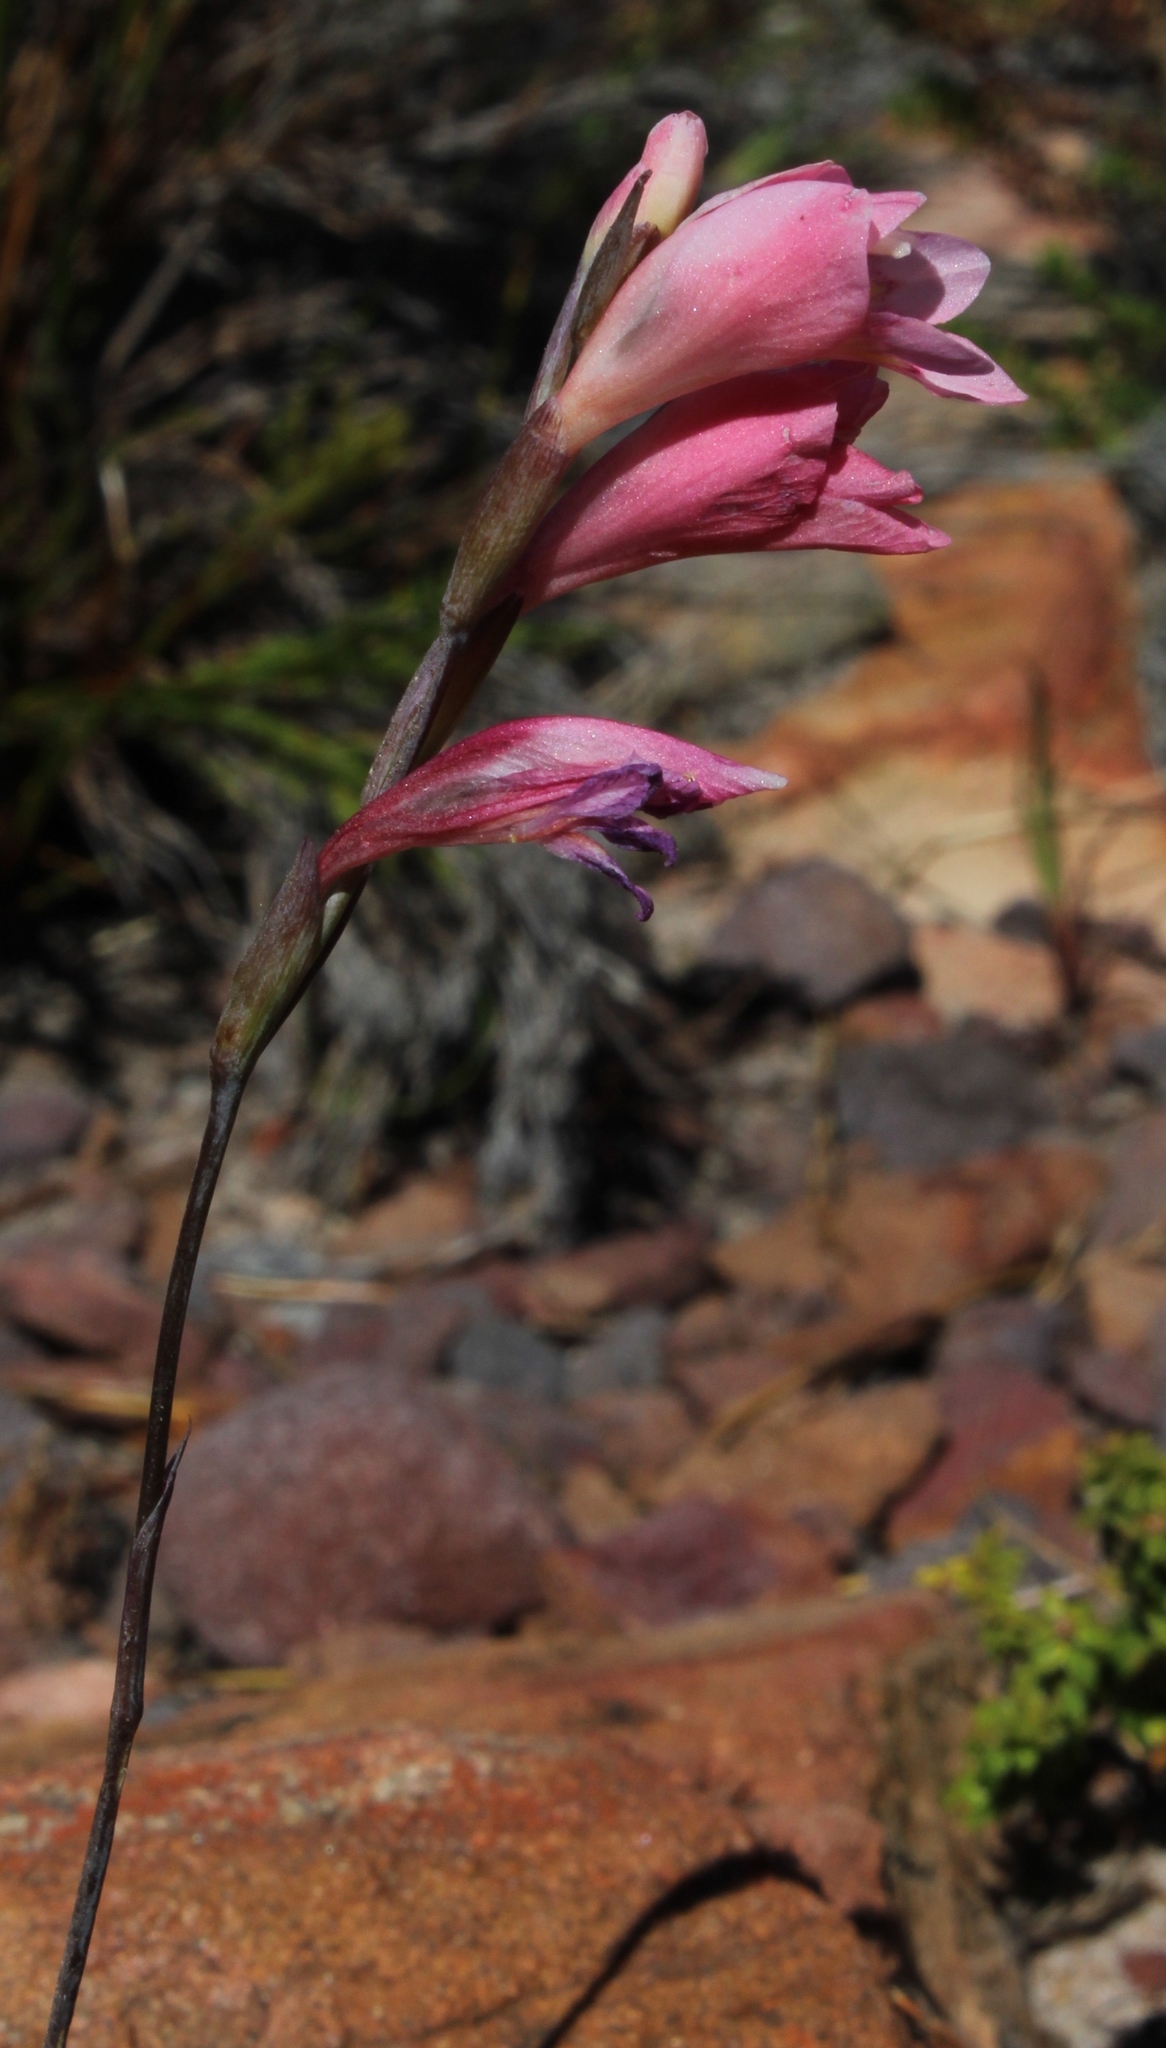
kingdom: Plantae
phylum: Tracheophyta
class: Liliopsida
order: Asparagales
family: Iridaceae
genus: Gladiolus
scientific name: Gladiolus brevifolius
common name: March pypie
